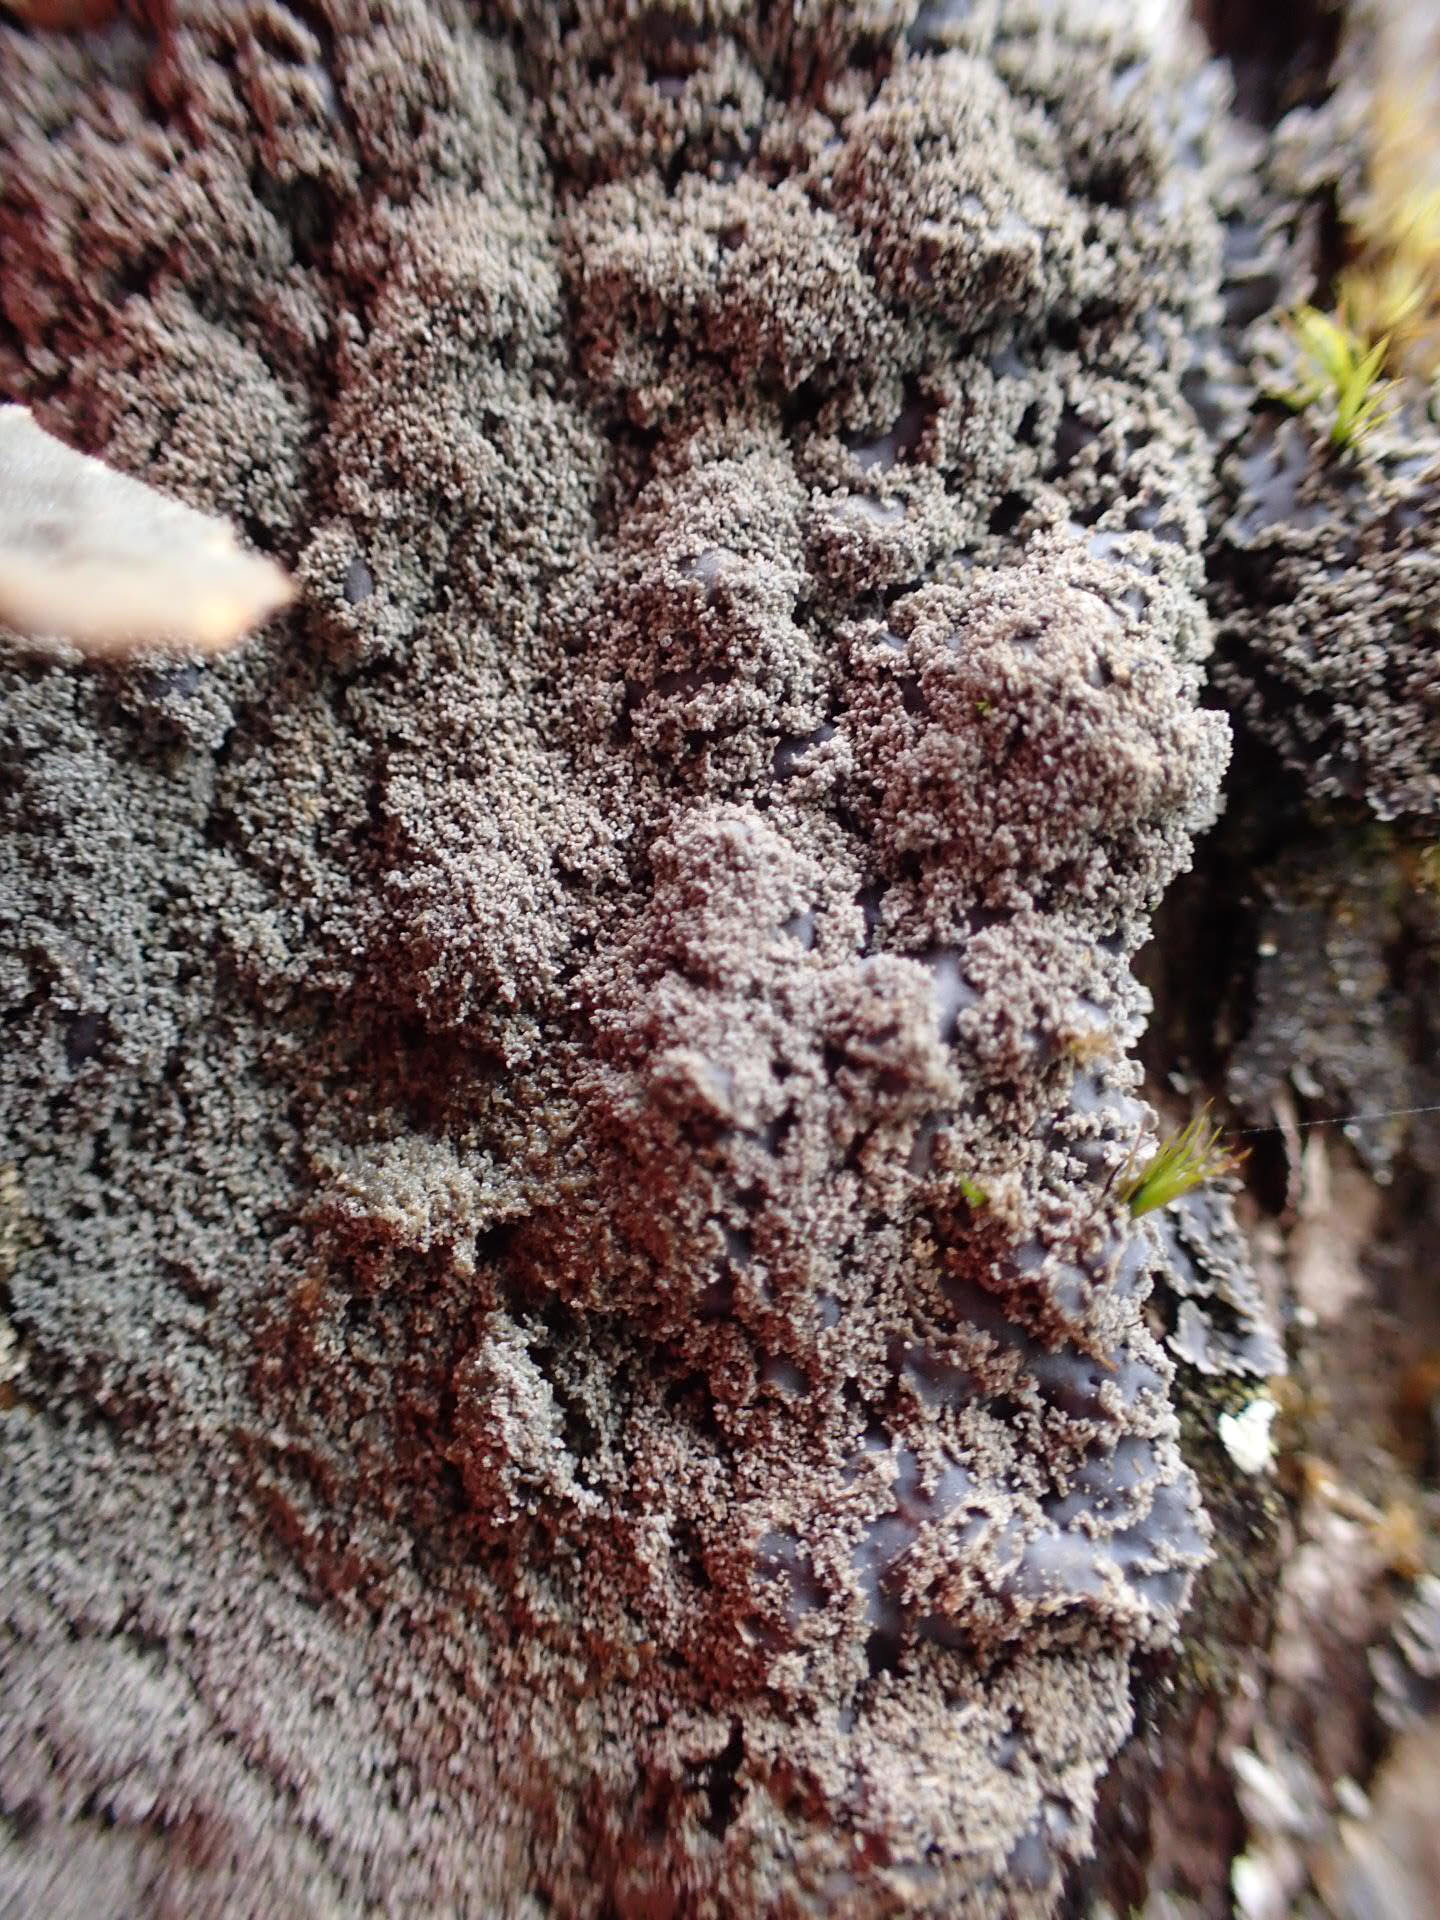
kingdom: Fungi
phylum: Ascomycota
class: Lecanoromycetes
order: Peltigerales
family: Pannariaceae
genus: Pannaria
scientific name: Pannaria conoplea
